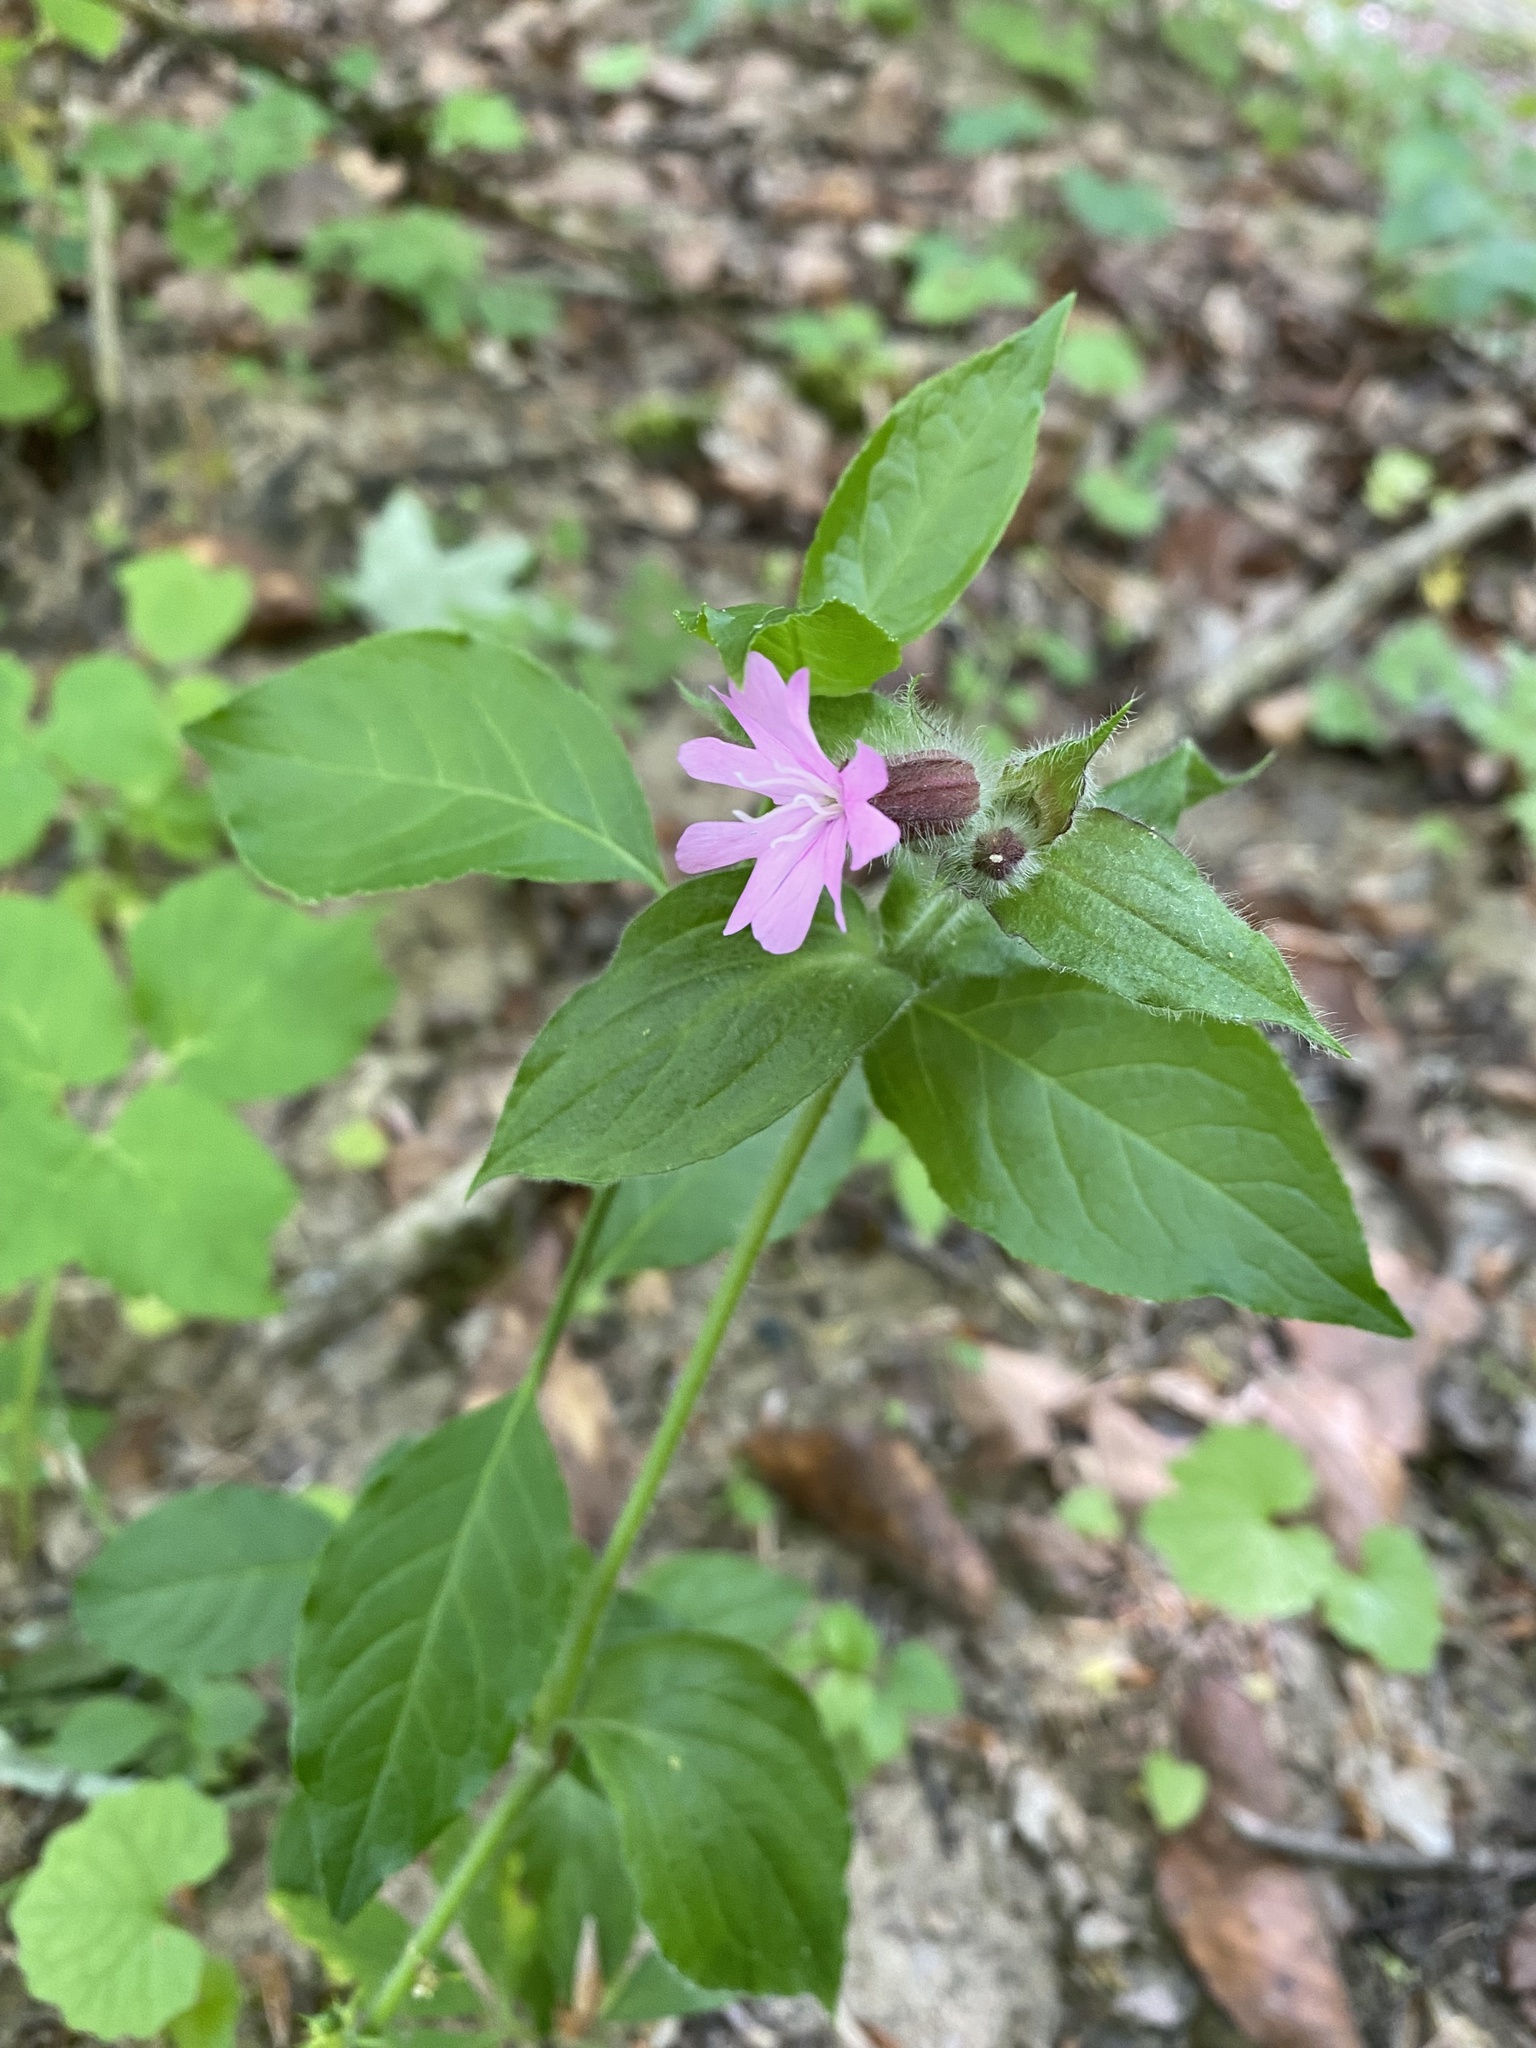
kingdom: Plantae
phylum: Tracheophyta
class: Magnoliopsida
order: Caryophyllales
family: Caryophyllaceae
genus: Silene
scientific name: Silene dioica
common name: Red campion
